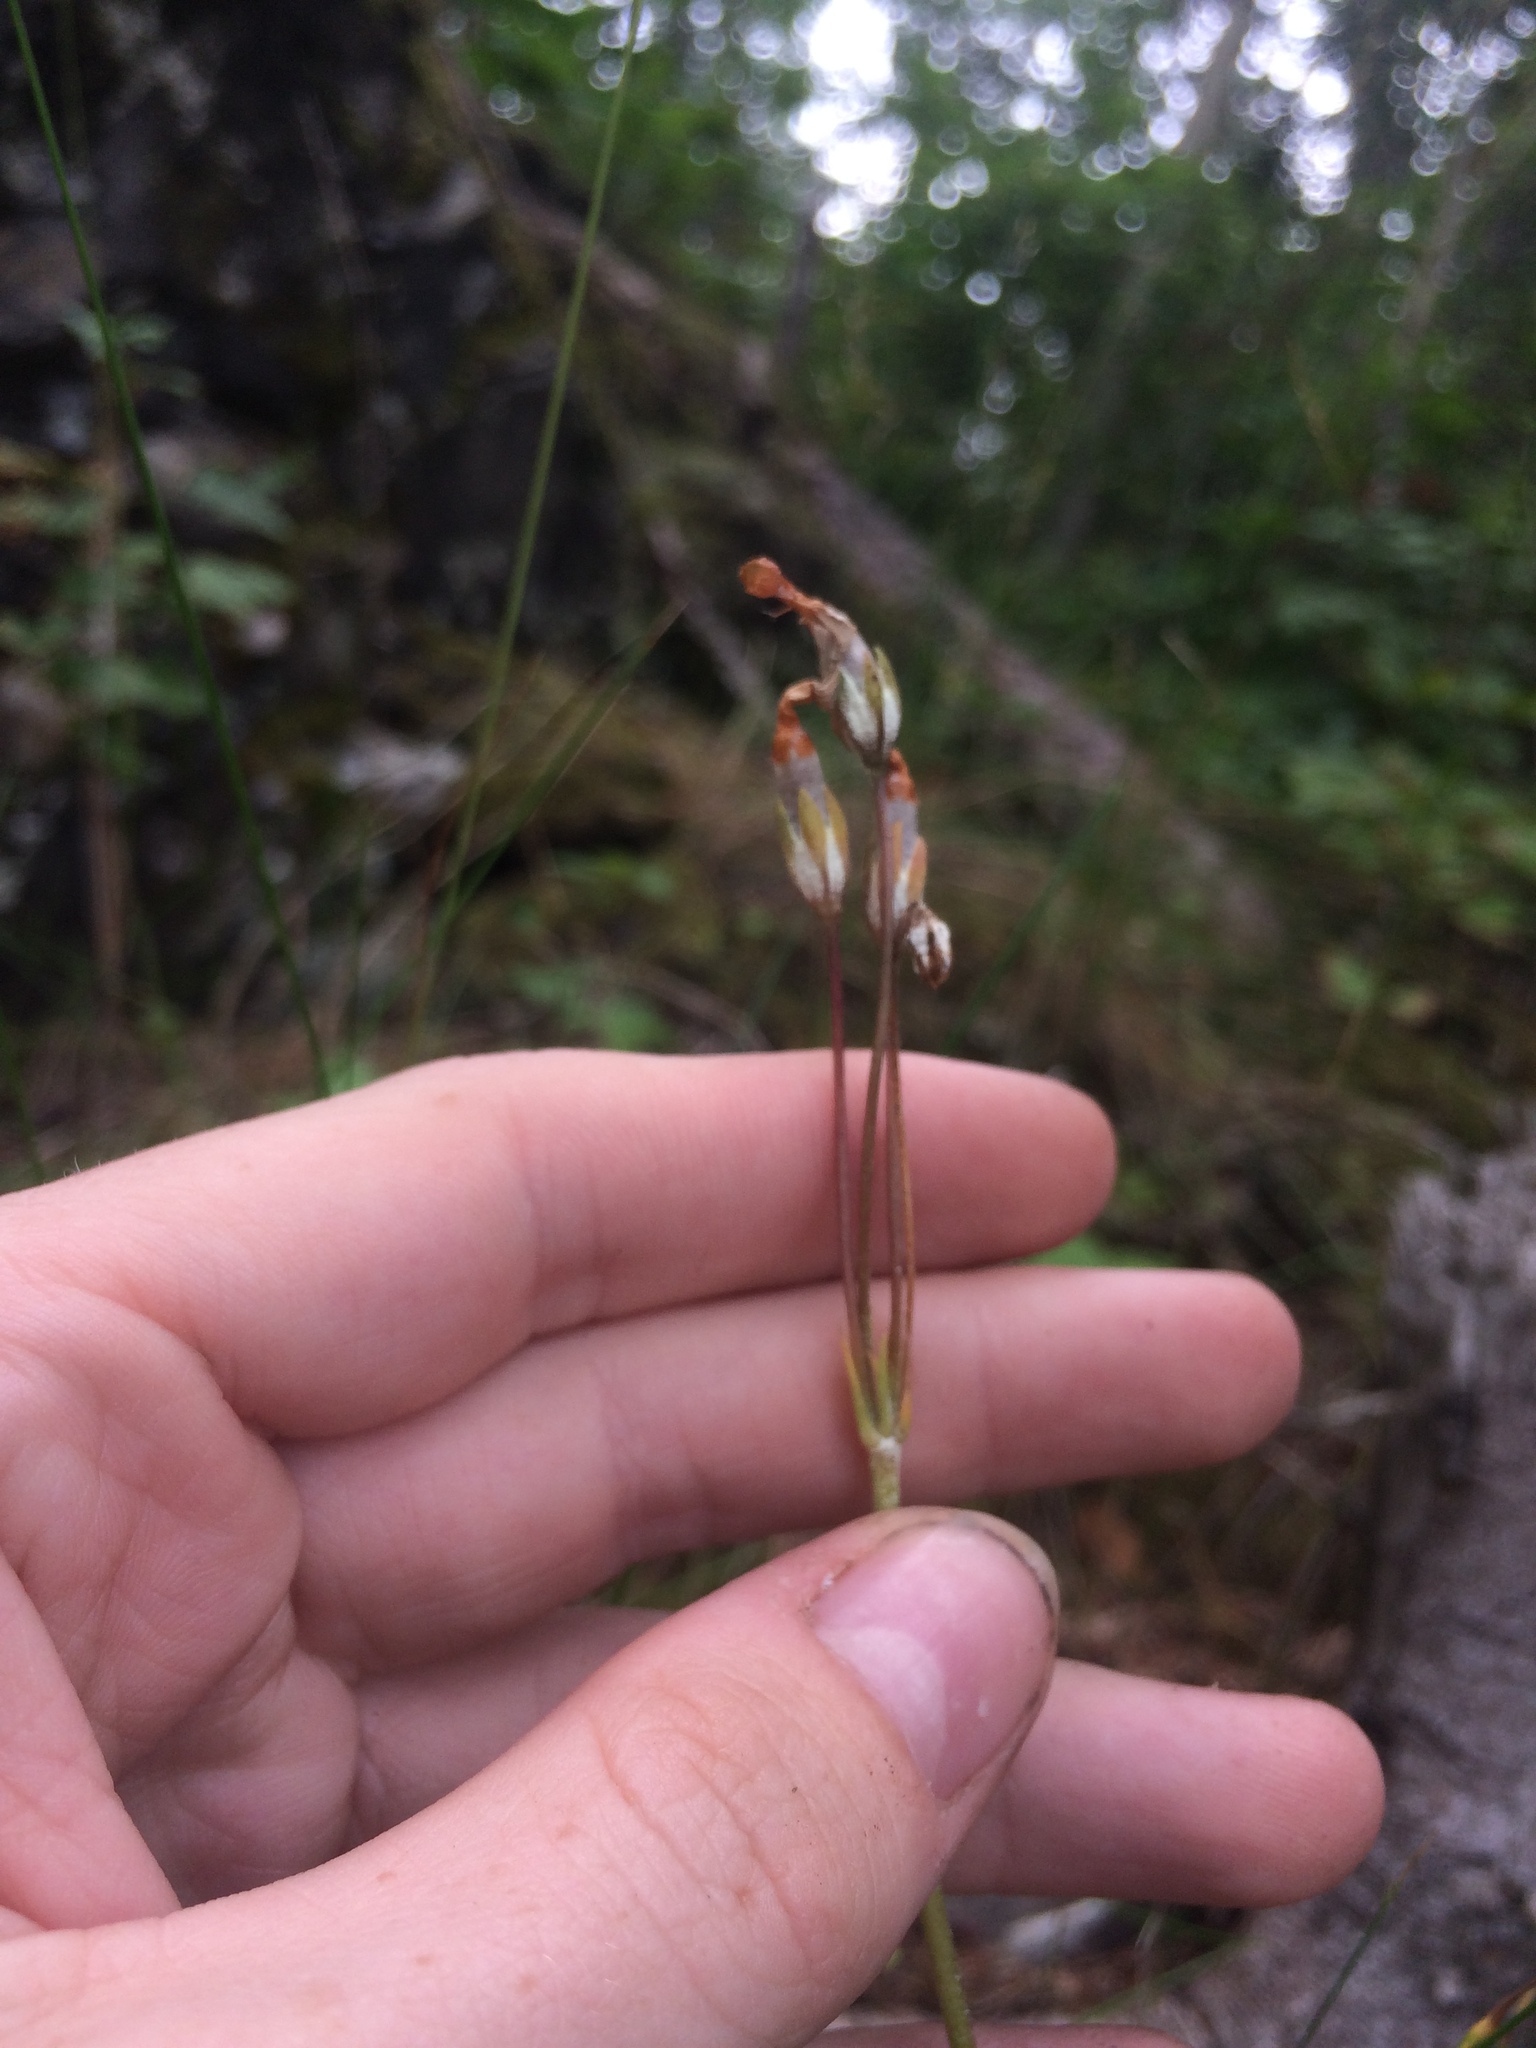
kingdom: Plantae
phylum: Tracheophyta
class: Magnoliopsida
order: Ericales
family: Primulaceae
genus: Primula
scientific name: Primula laurentiana
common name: Bird-eye primrose
